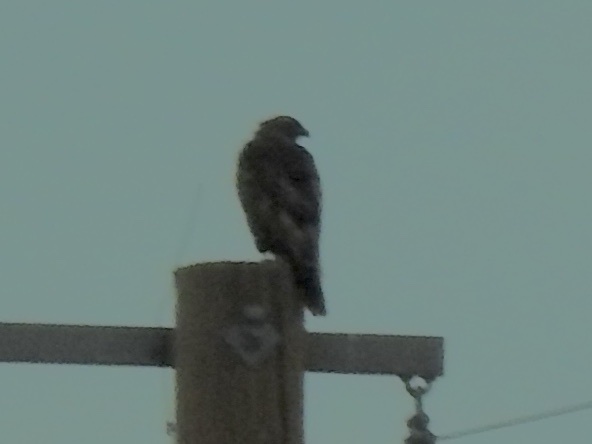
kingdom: Animalia
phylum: Chordata
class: Aves
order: Accipitriformes
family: Accipitridae
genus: Buteo
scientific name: Buteo jamaicensis
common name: Red-tailed hawk
